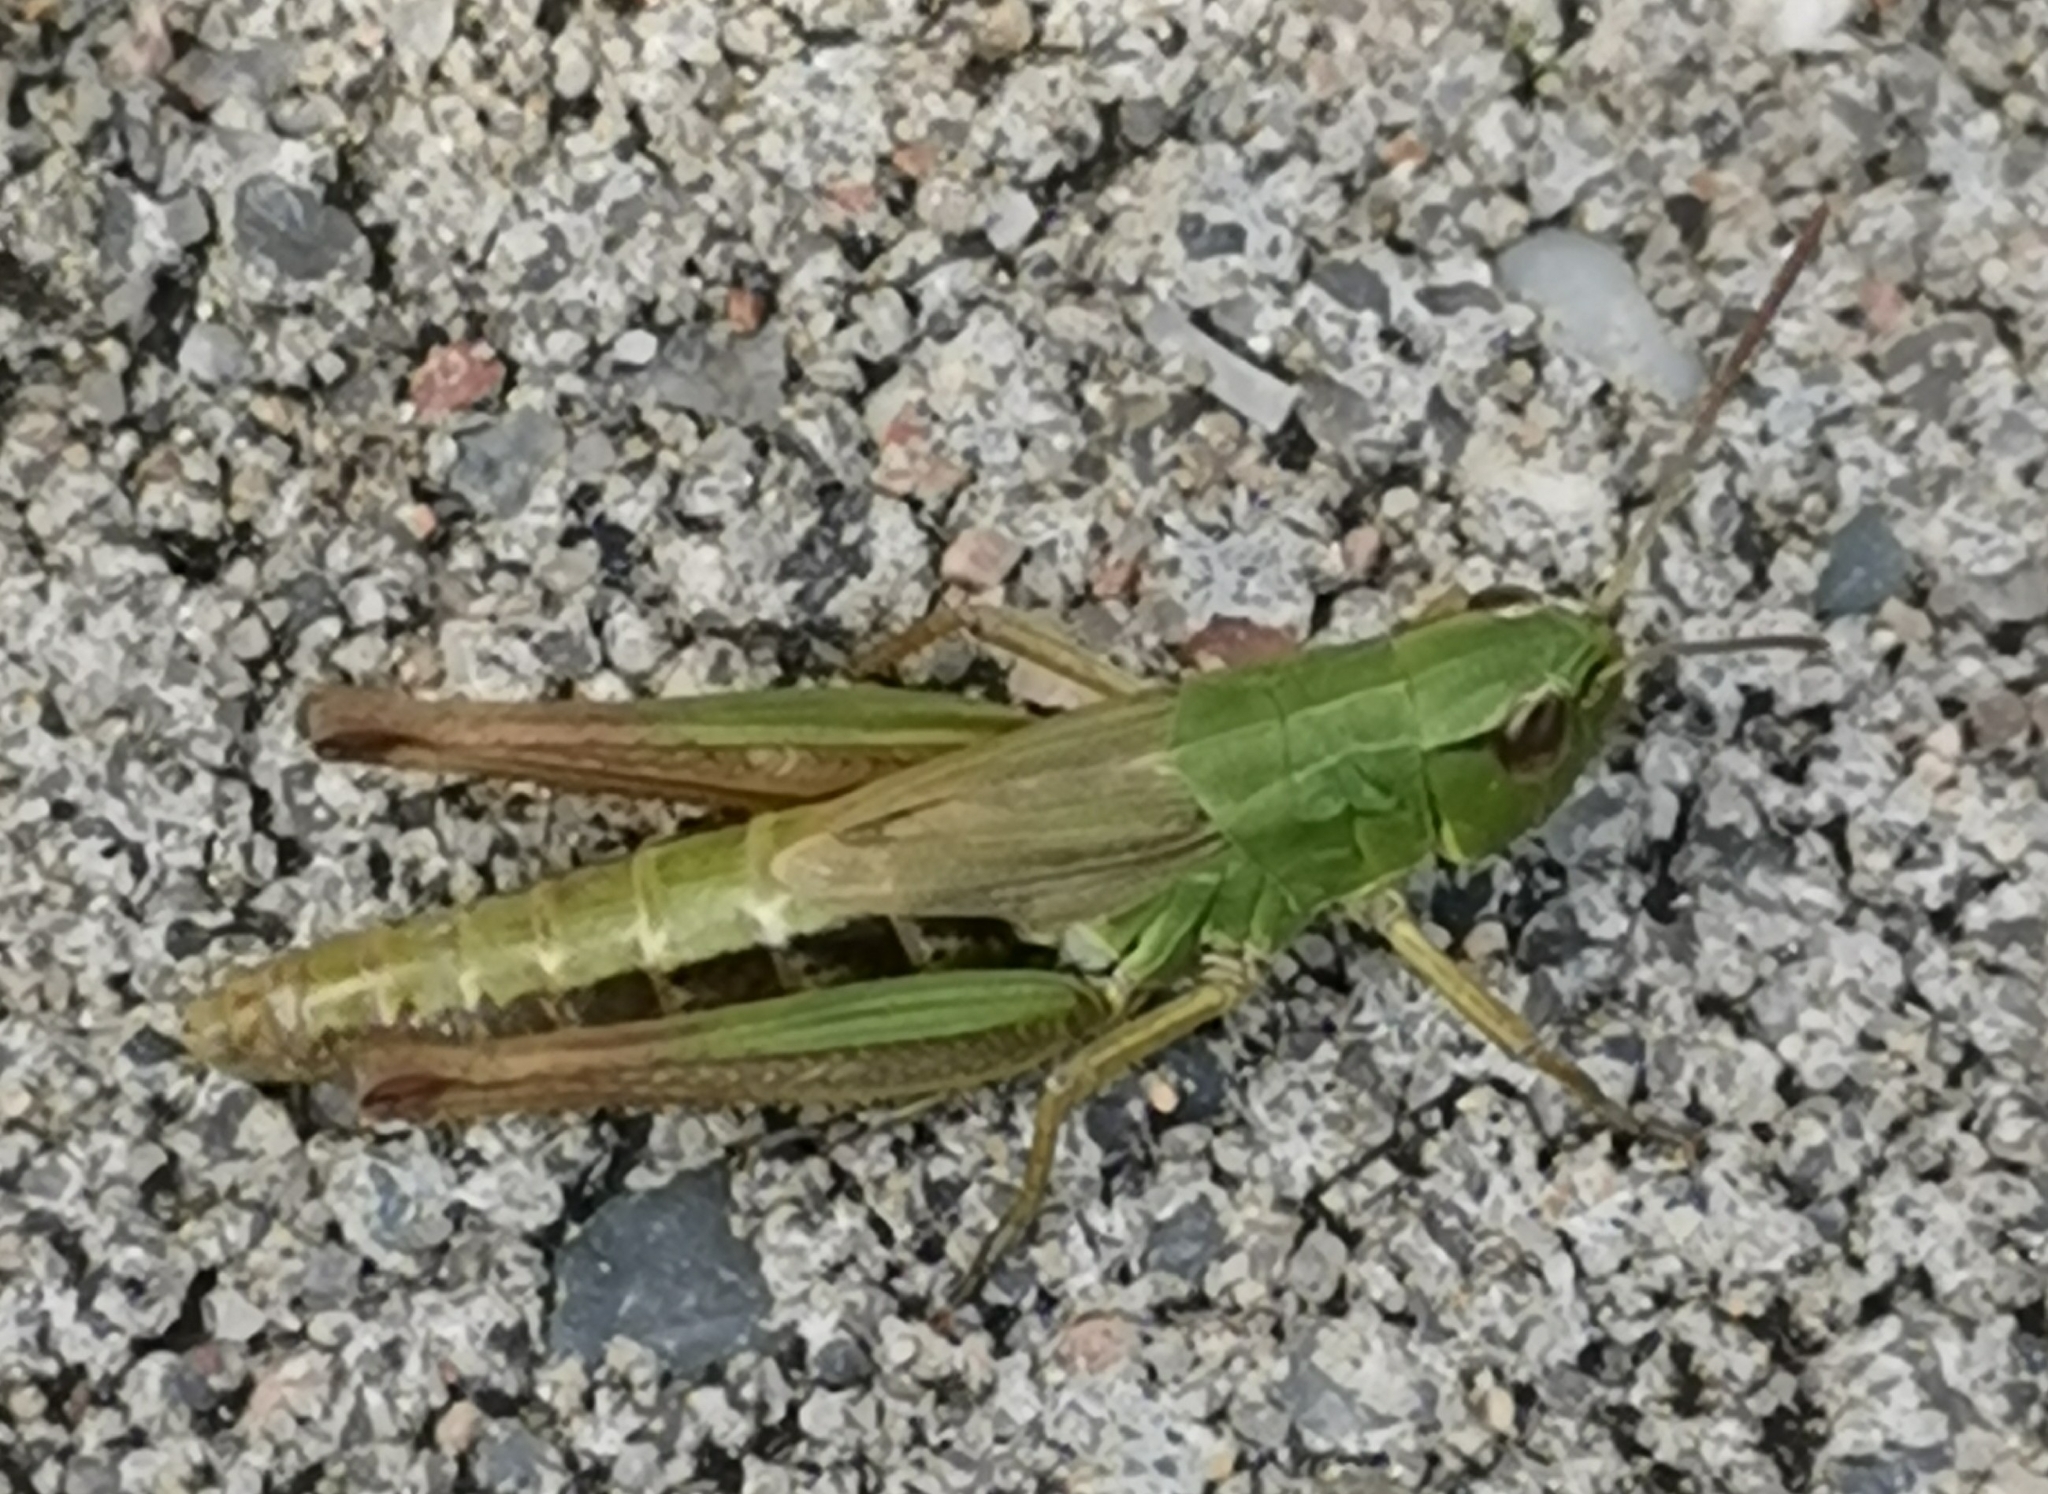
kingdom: Animalia
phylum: Arthropoda
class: Insecta
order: Orthoptera
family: Acrididae
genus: Pseudochorthippus
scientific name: Pseudochorthippus parallelus
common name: Meadow grasshopper
